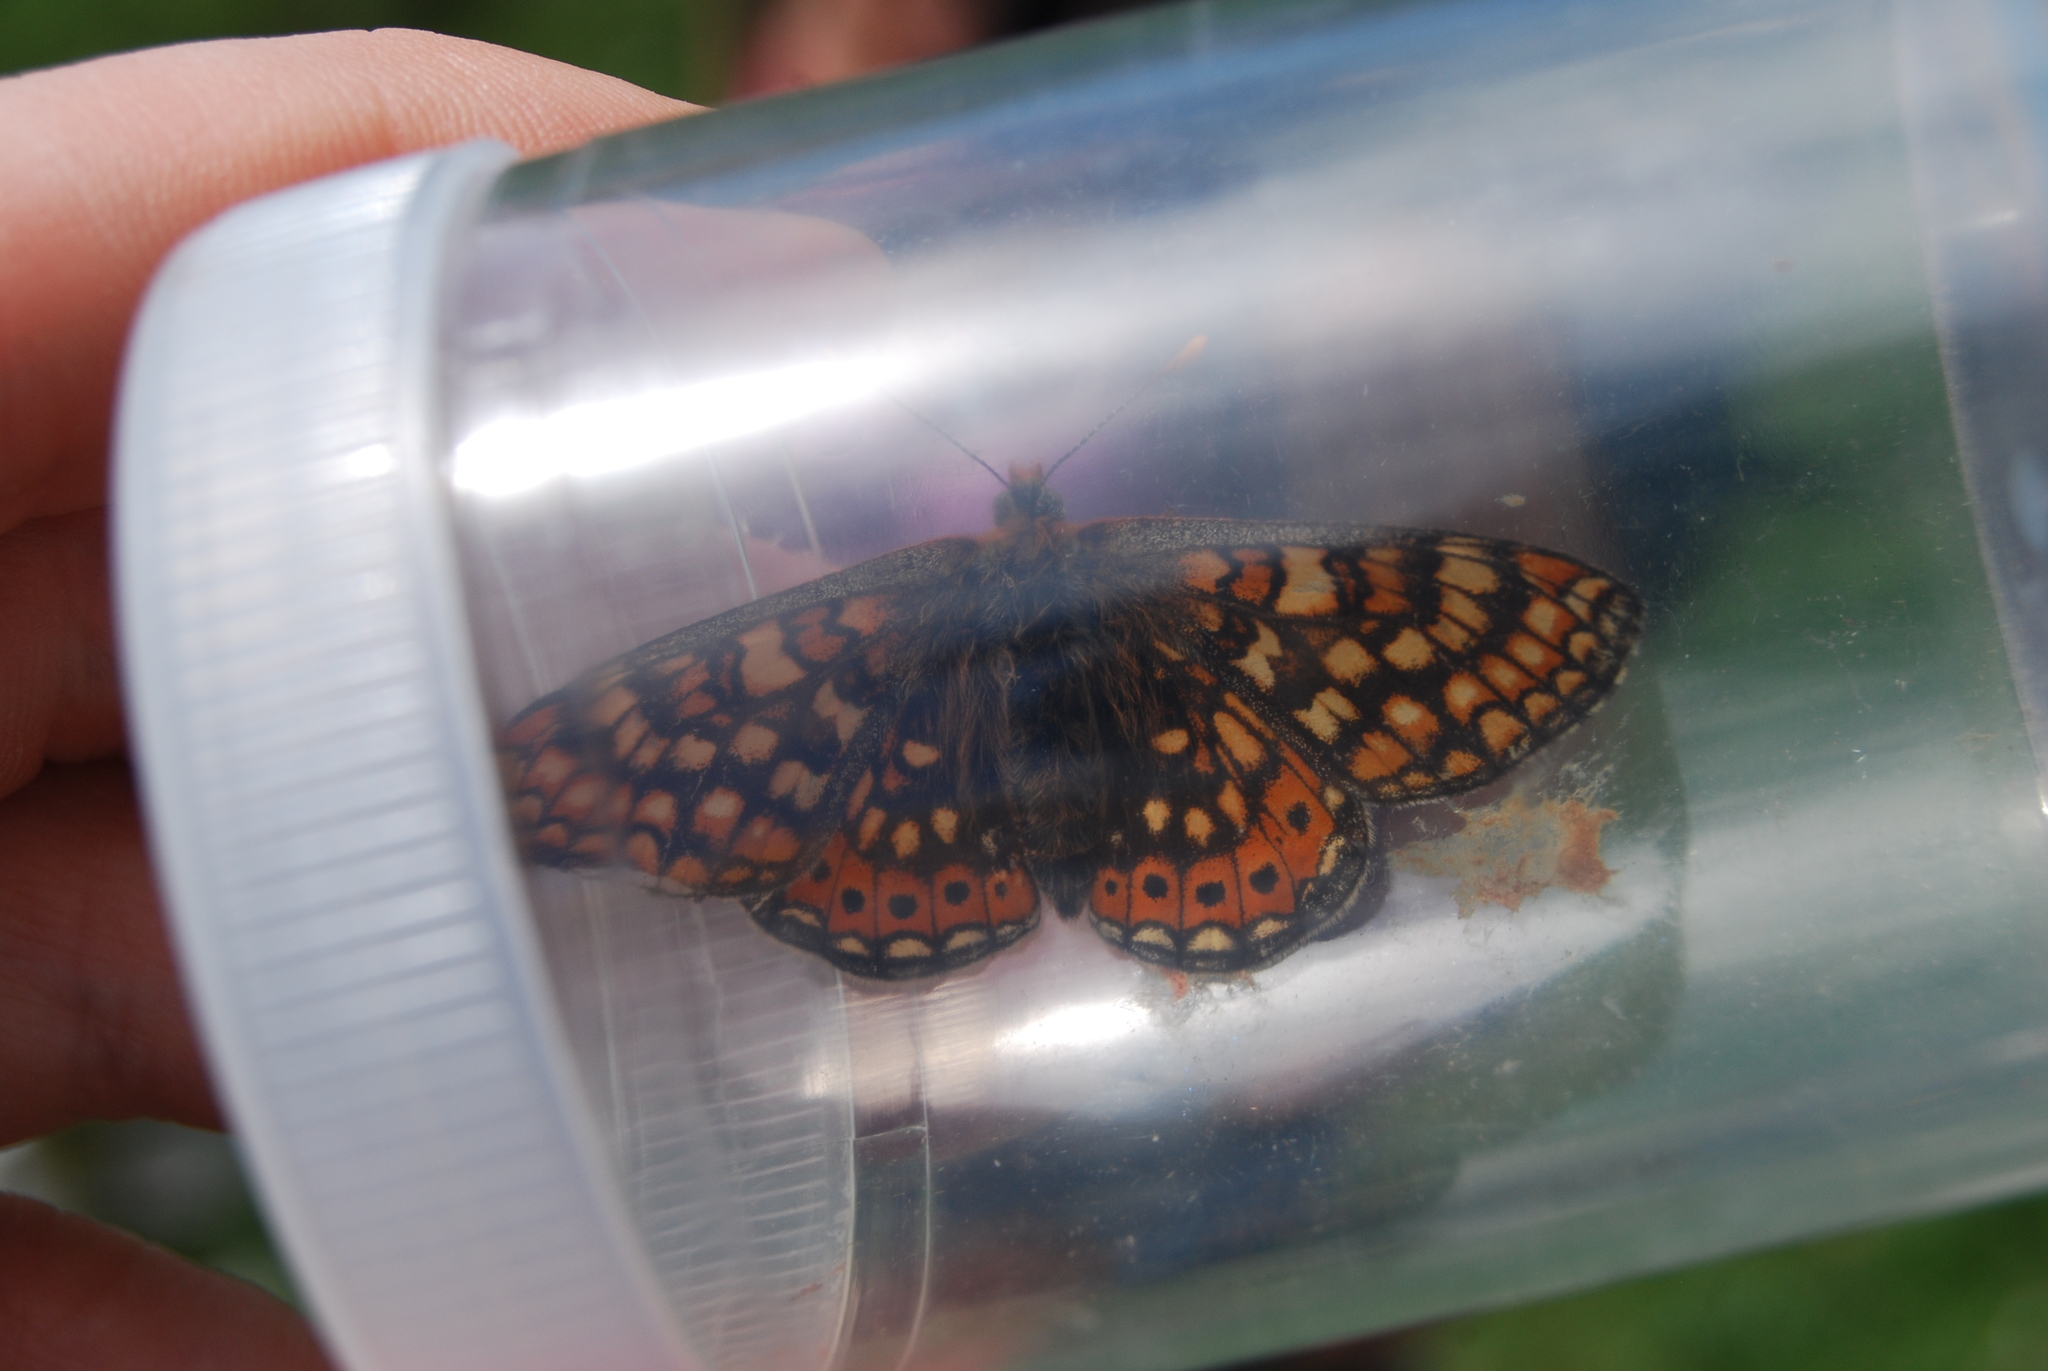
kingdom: Animalia
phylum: Arthropoda
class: Insecta
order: Lepidoptera
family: Nymphalidae
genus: Euphydryas
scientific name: Euphydryas aurinia
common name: Marsh fritillary
